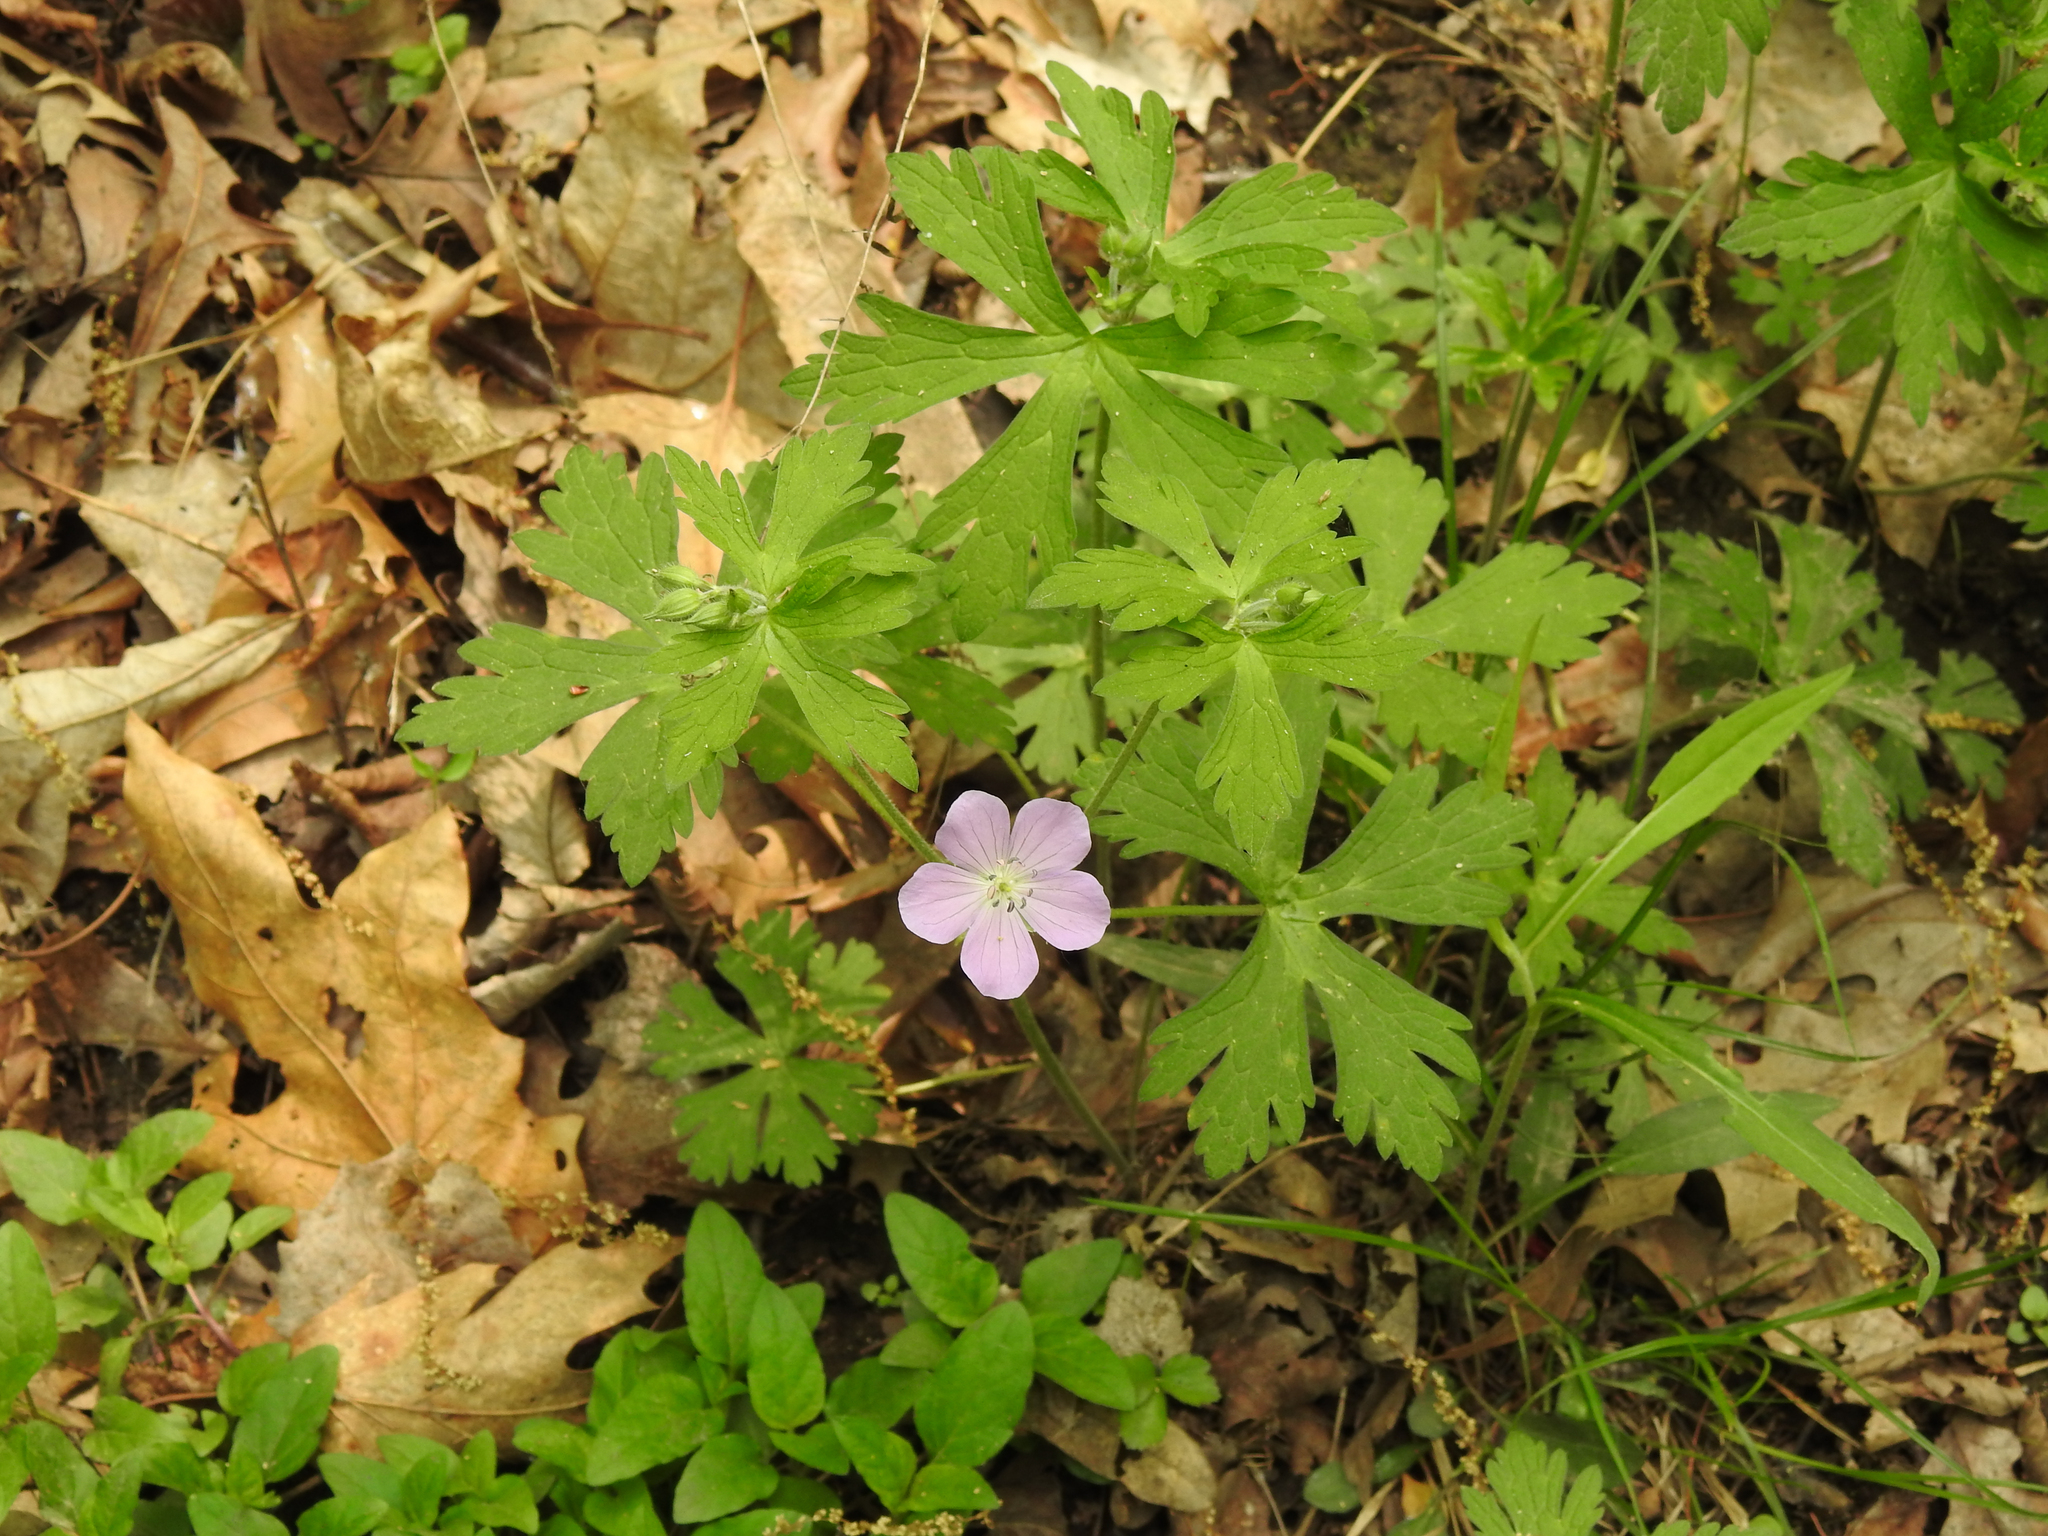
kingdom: Plantae
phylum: Tracheophyta
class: Magnoliopsida
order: Geraniales
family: Geraniaceae
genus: Geranium
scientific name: Geranium maculatum
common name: Spotted geranium
